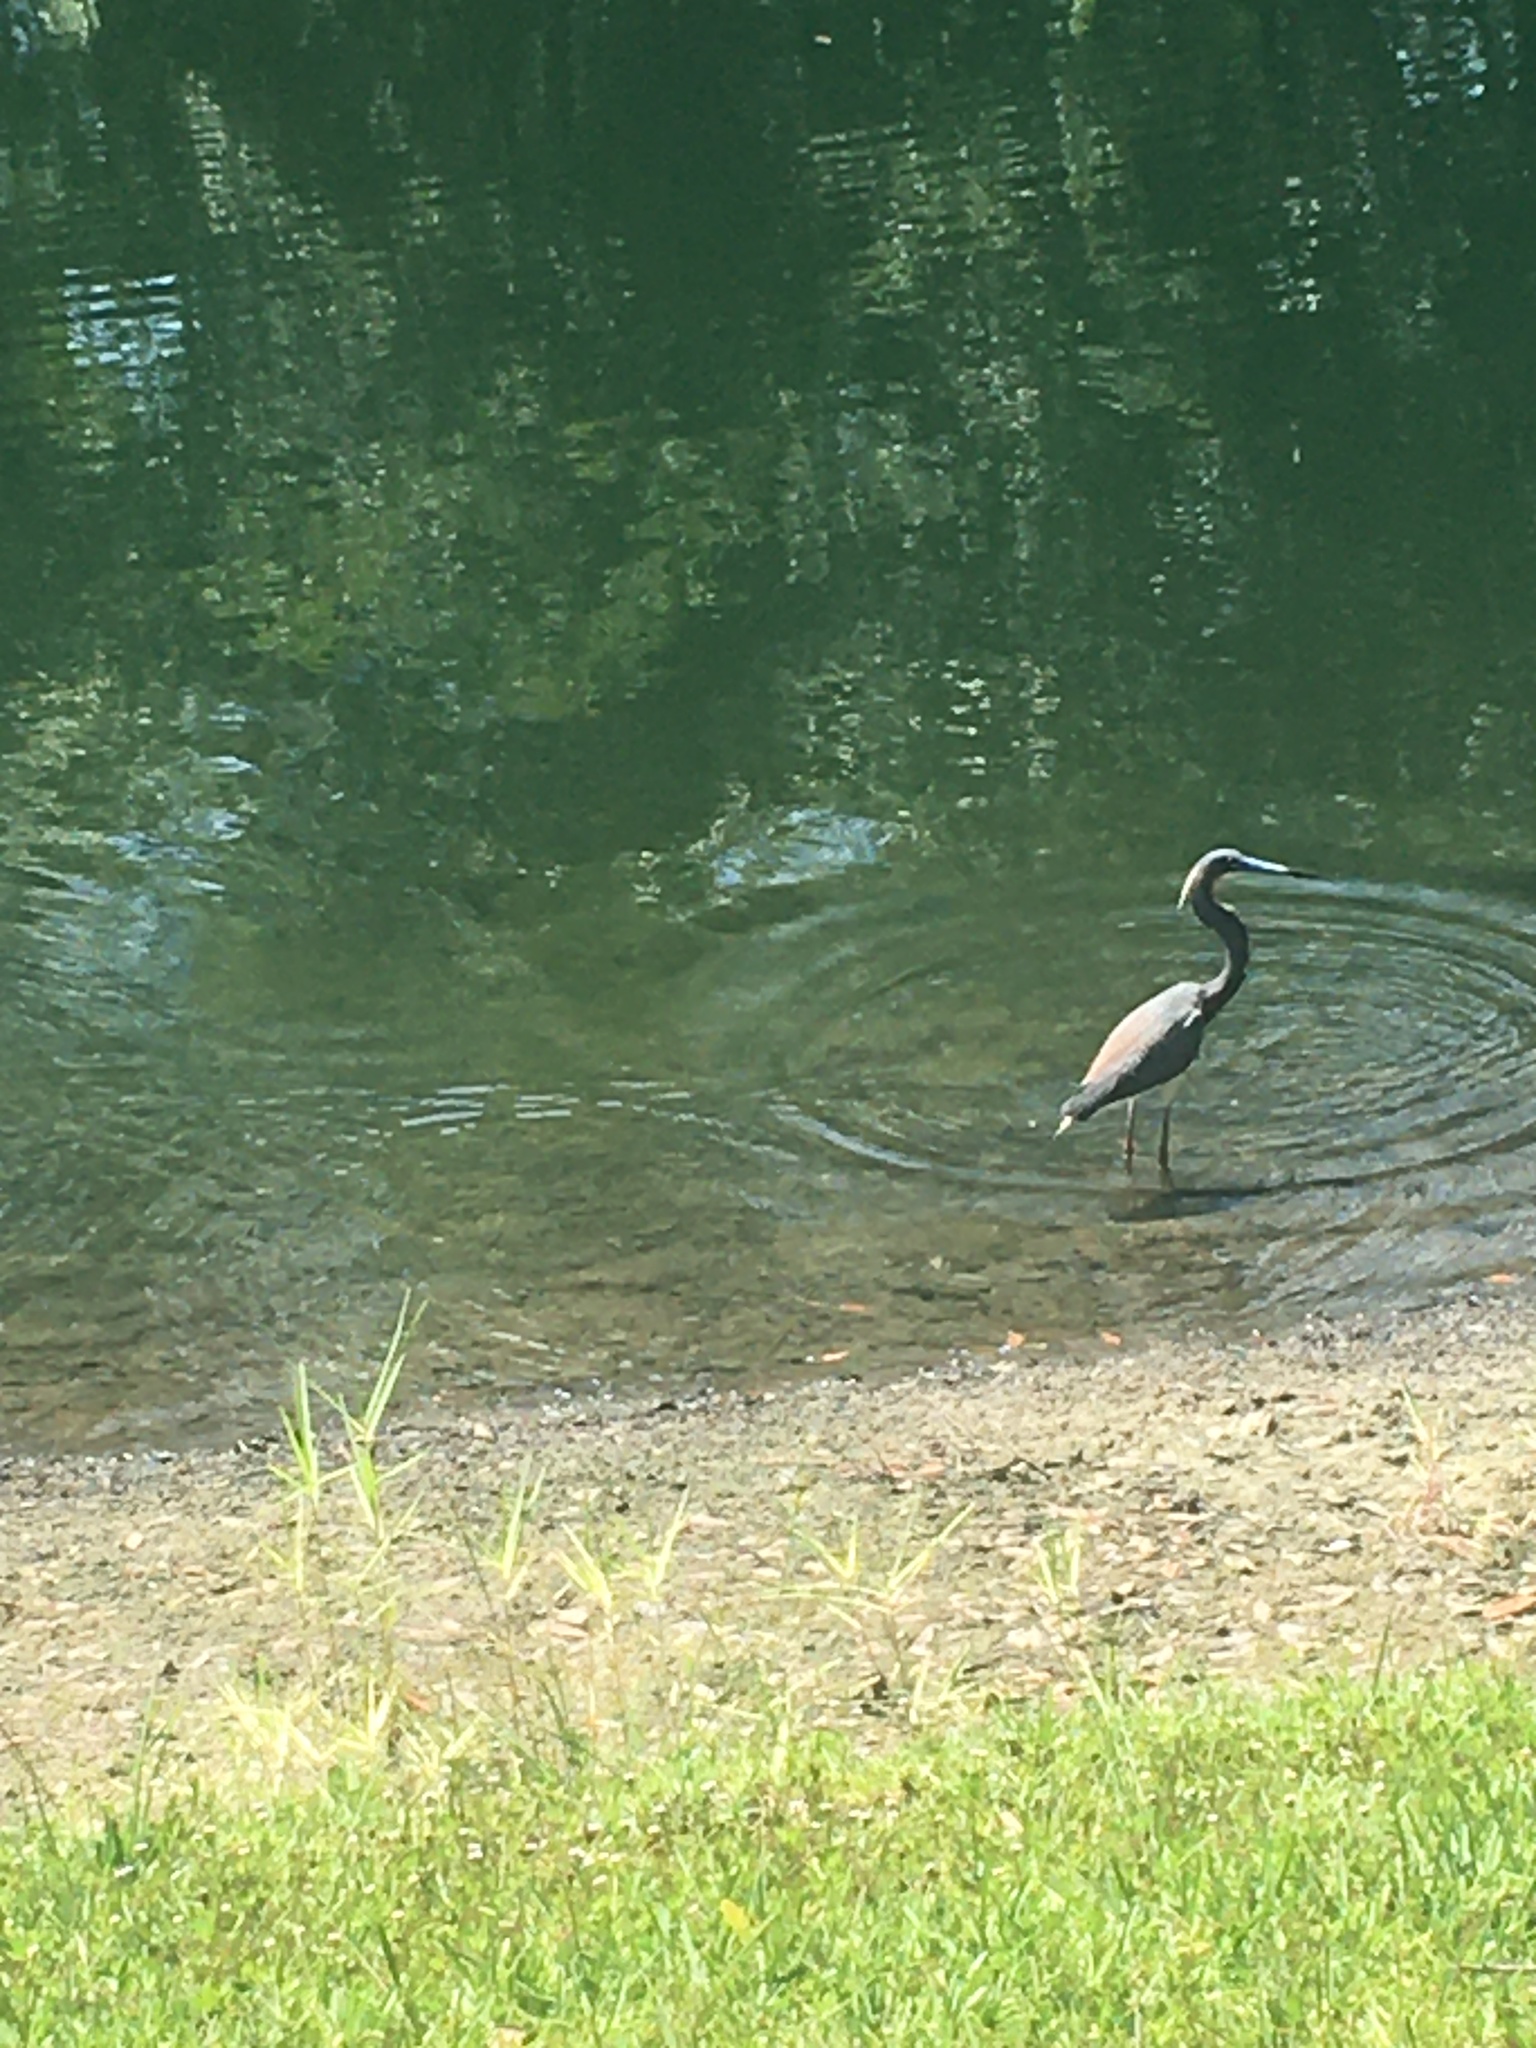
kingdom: Animalia
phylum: Chordata
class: Aves
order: Pelecaniformes
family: Ardeidae
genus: Egretta
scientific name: Egretta tricolor
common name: Tricolored heron
